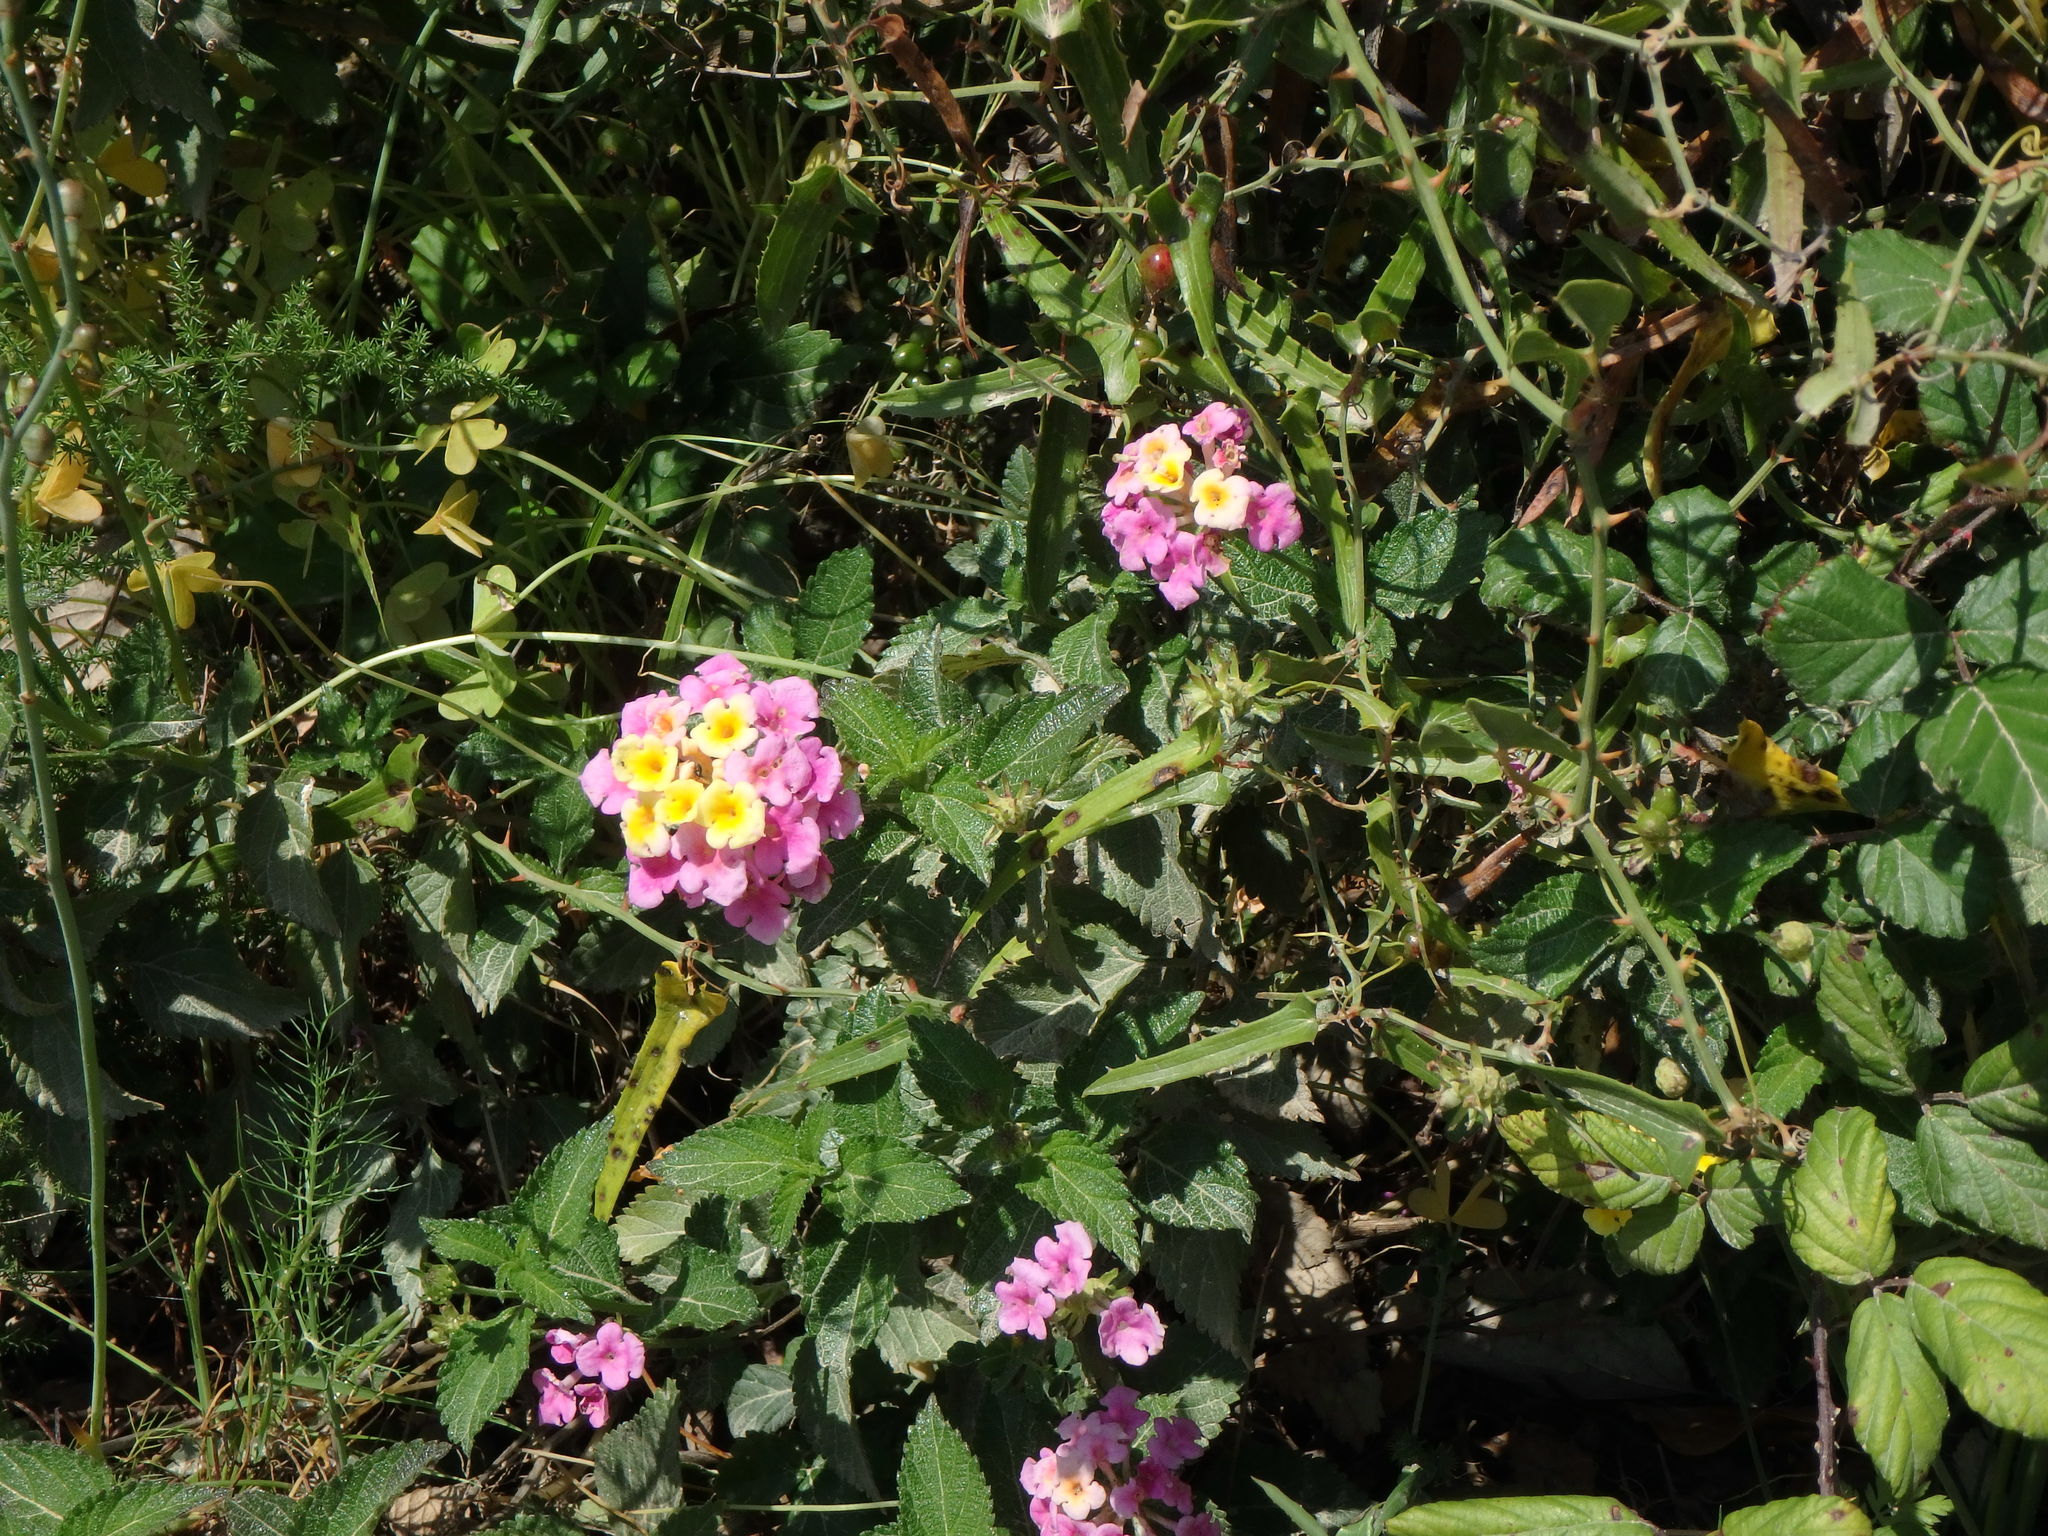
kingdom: Plantae
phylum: Tracheophyta
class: Magnoliopsida
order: Lamiales
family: Verbenaceae
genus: Lantana
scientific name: Lantana camara
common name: Lantana
